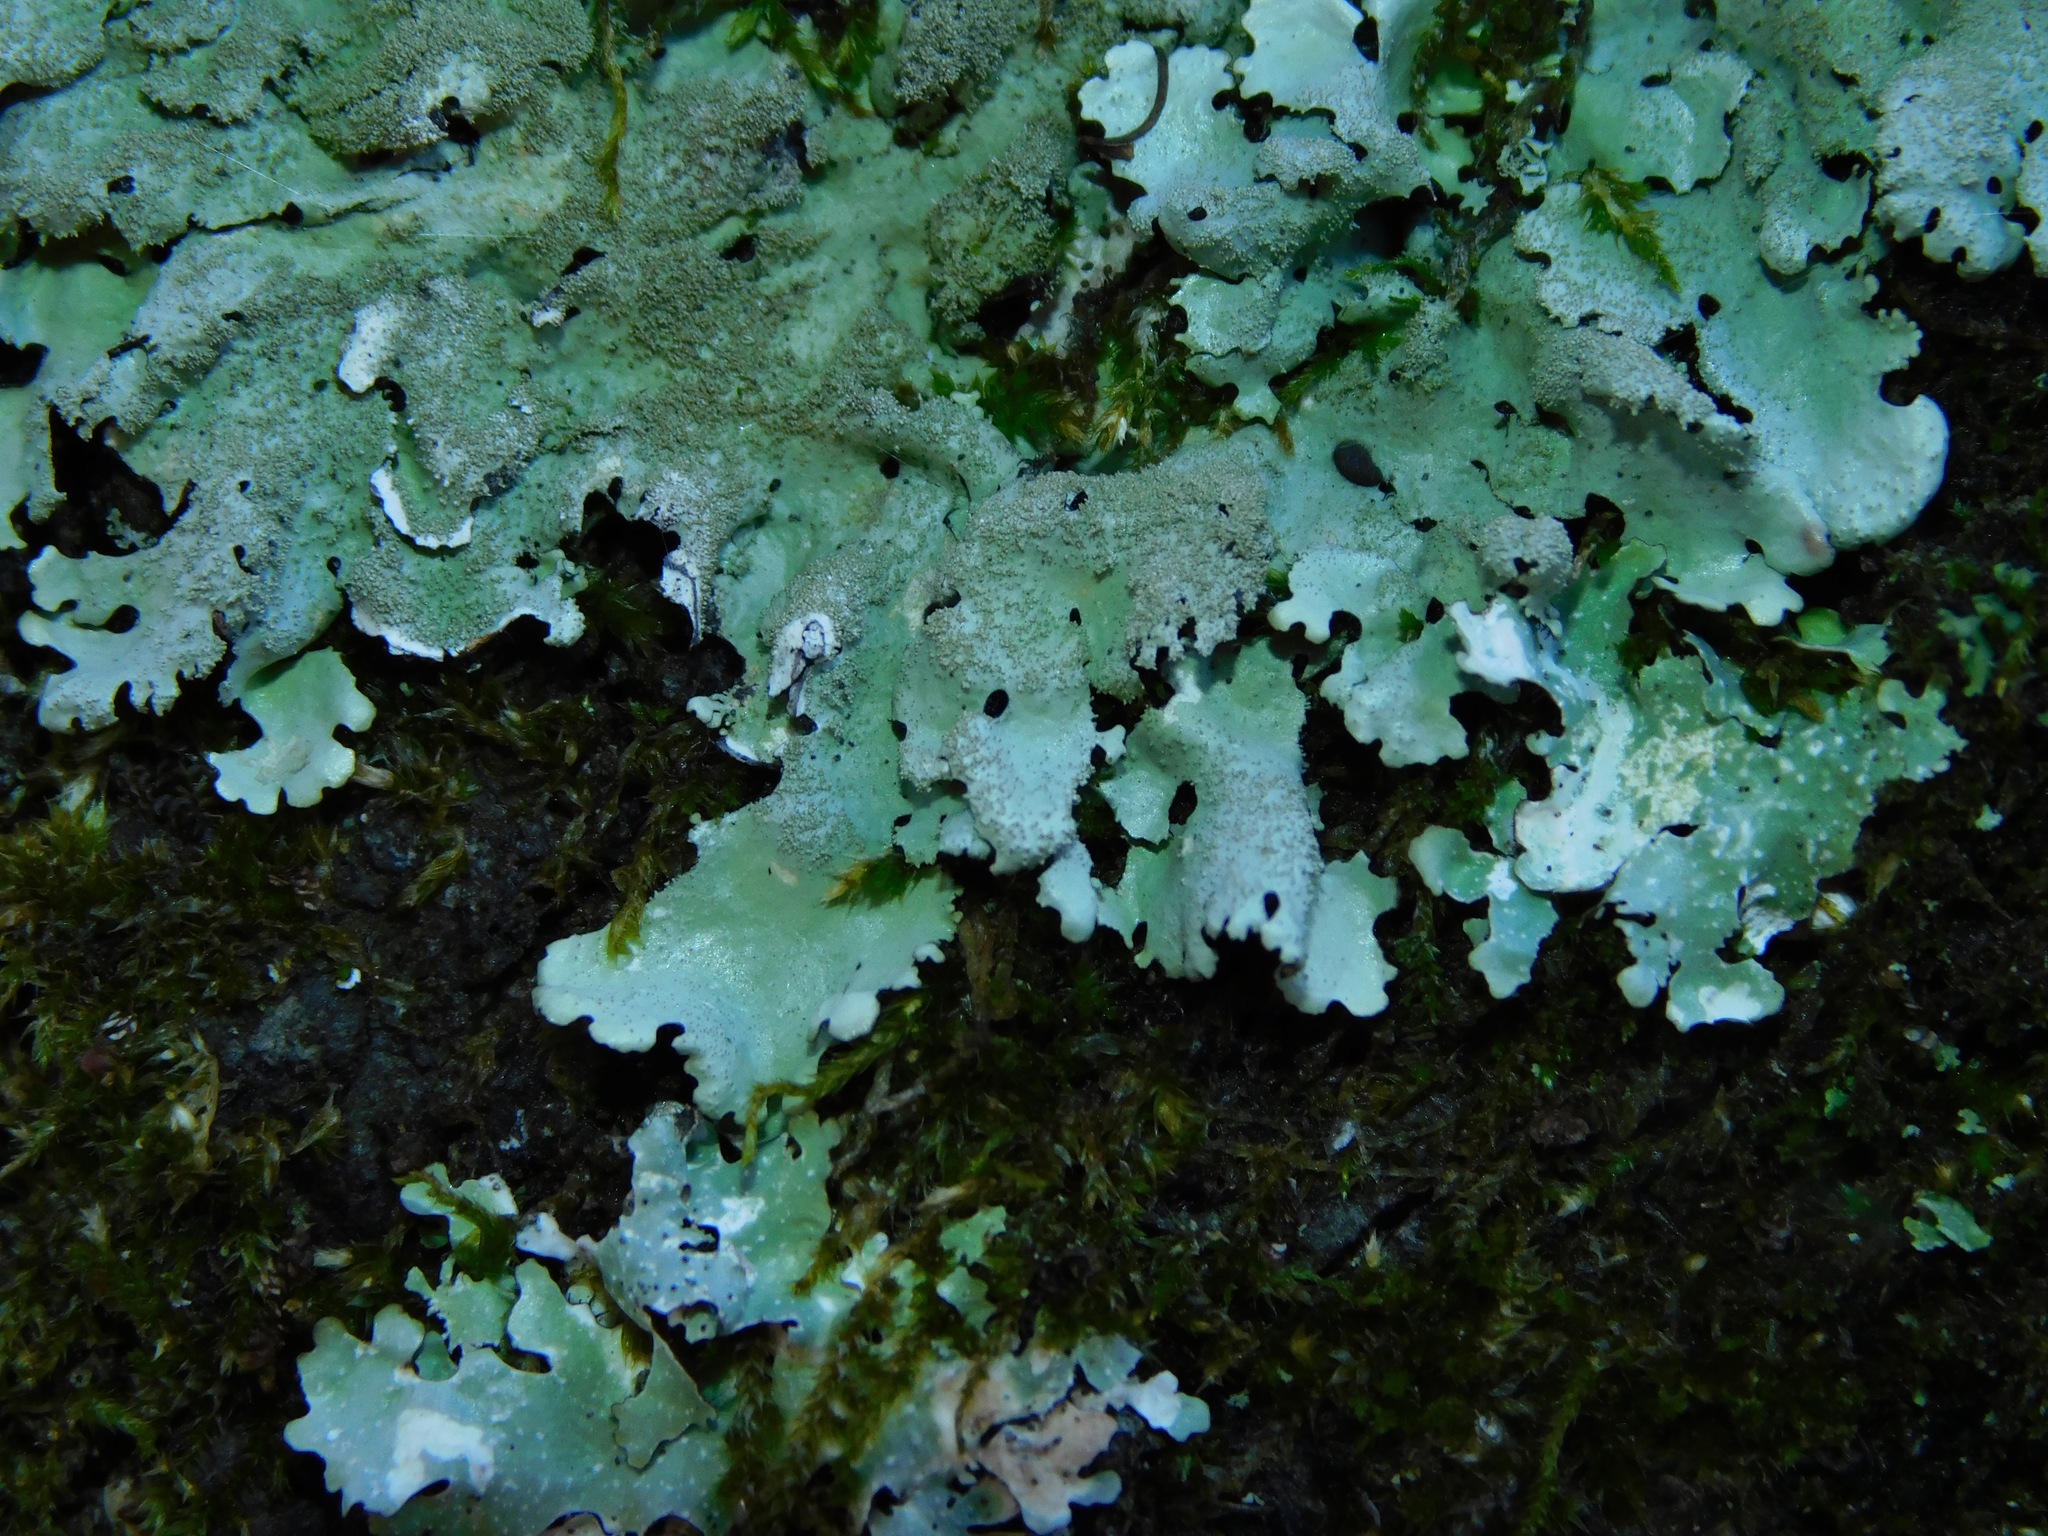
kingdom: Fungi
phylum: Ascomycota
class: Lecanoromycetes
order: Lecanorales
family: Parmeliaceae
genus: Hypotrachyna
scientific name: Hypotrachyna minarum
